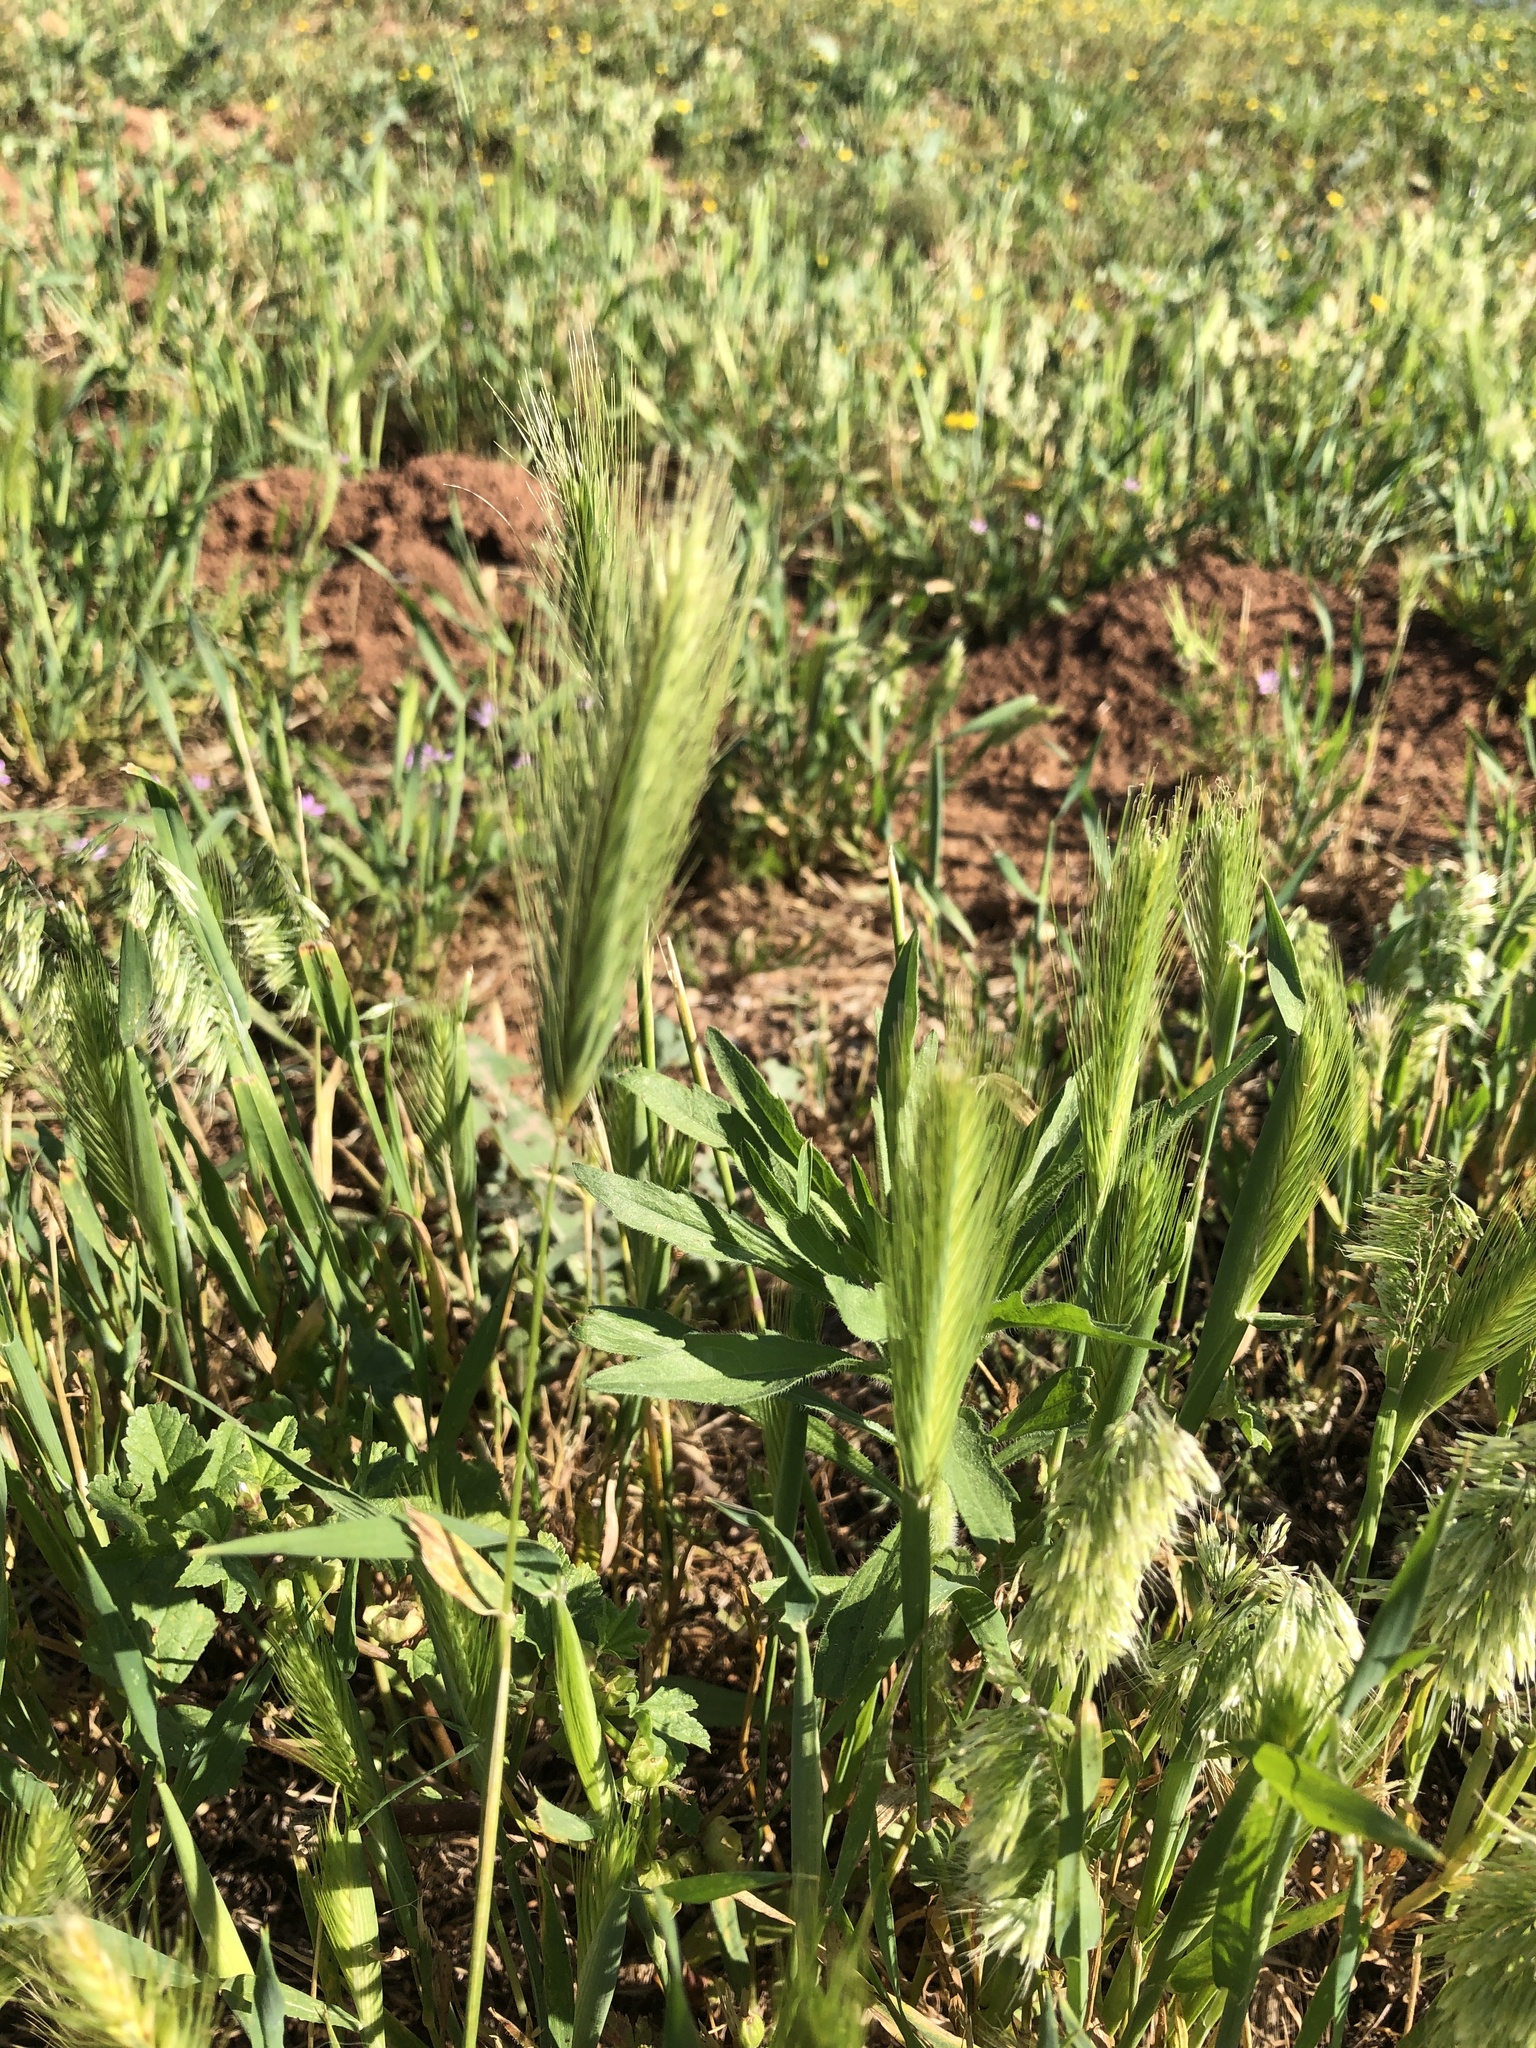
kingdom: Plantae
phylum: Tracheophyta
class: Liliopsida
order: Poales
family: Poaceae
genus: Hordeum
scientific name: Hordeum murinum
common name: Wall barley
